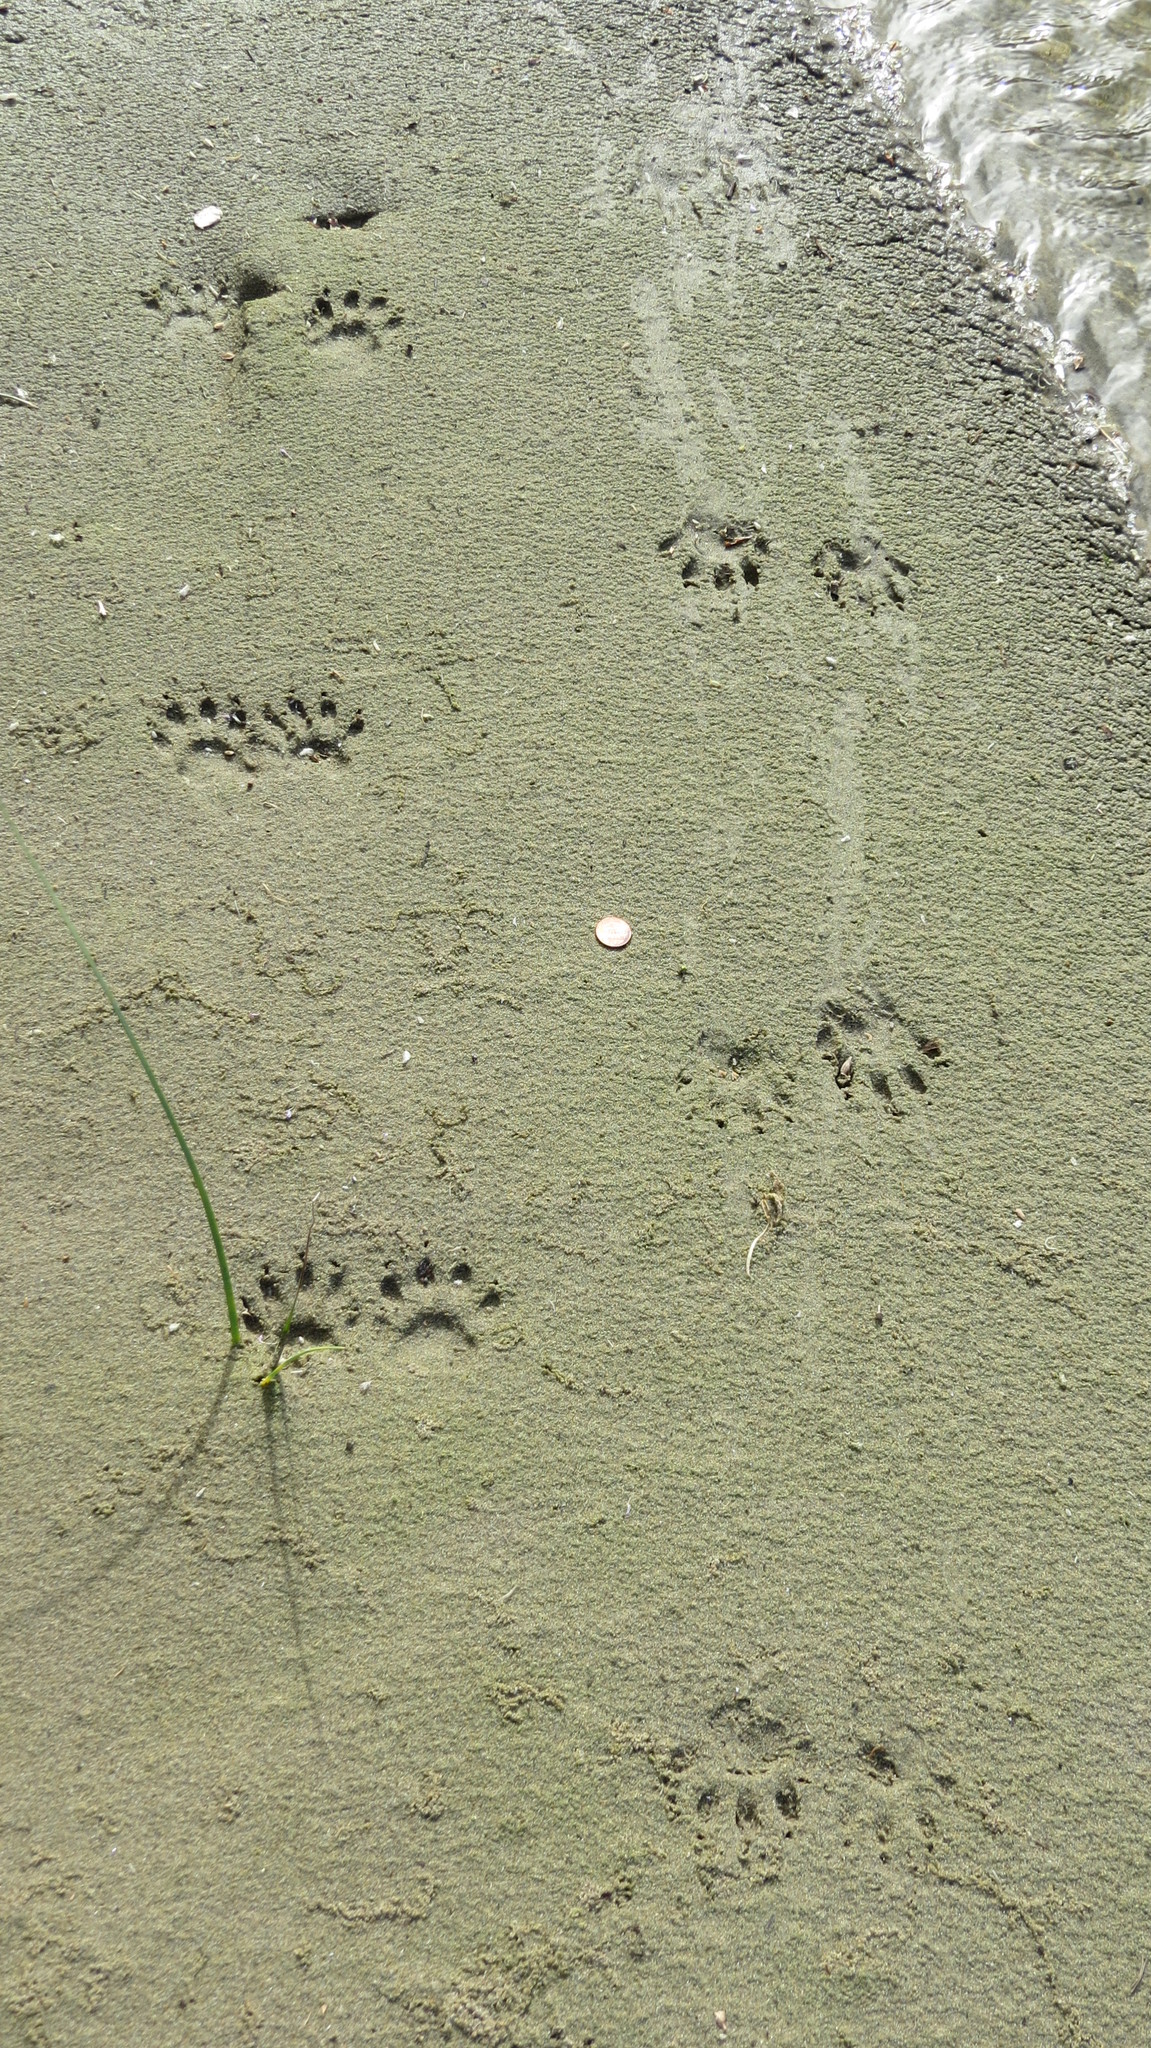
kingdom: Animalia
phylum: Chordata
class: Mammalia
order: Carnivora
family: Procyonidae
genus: Procyon
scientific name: Procyon lotor
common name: Raccoon
